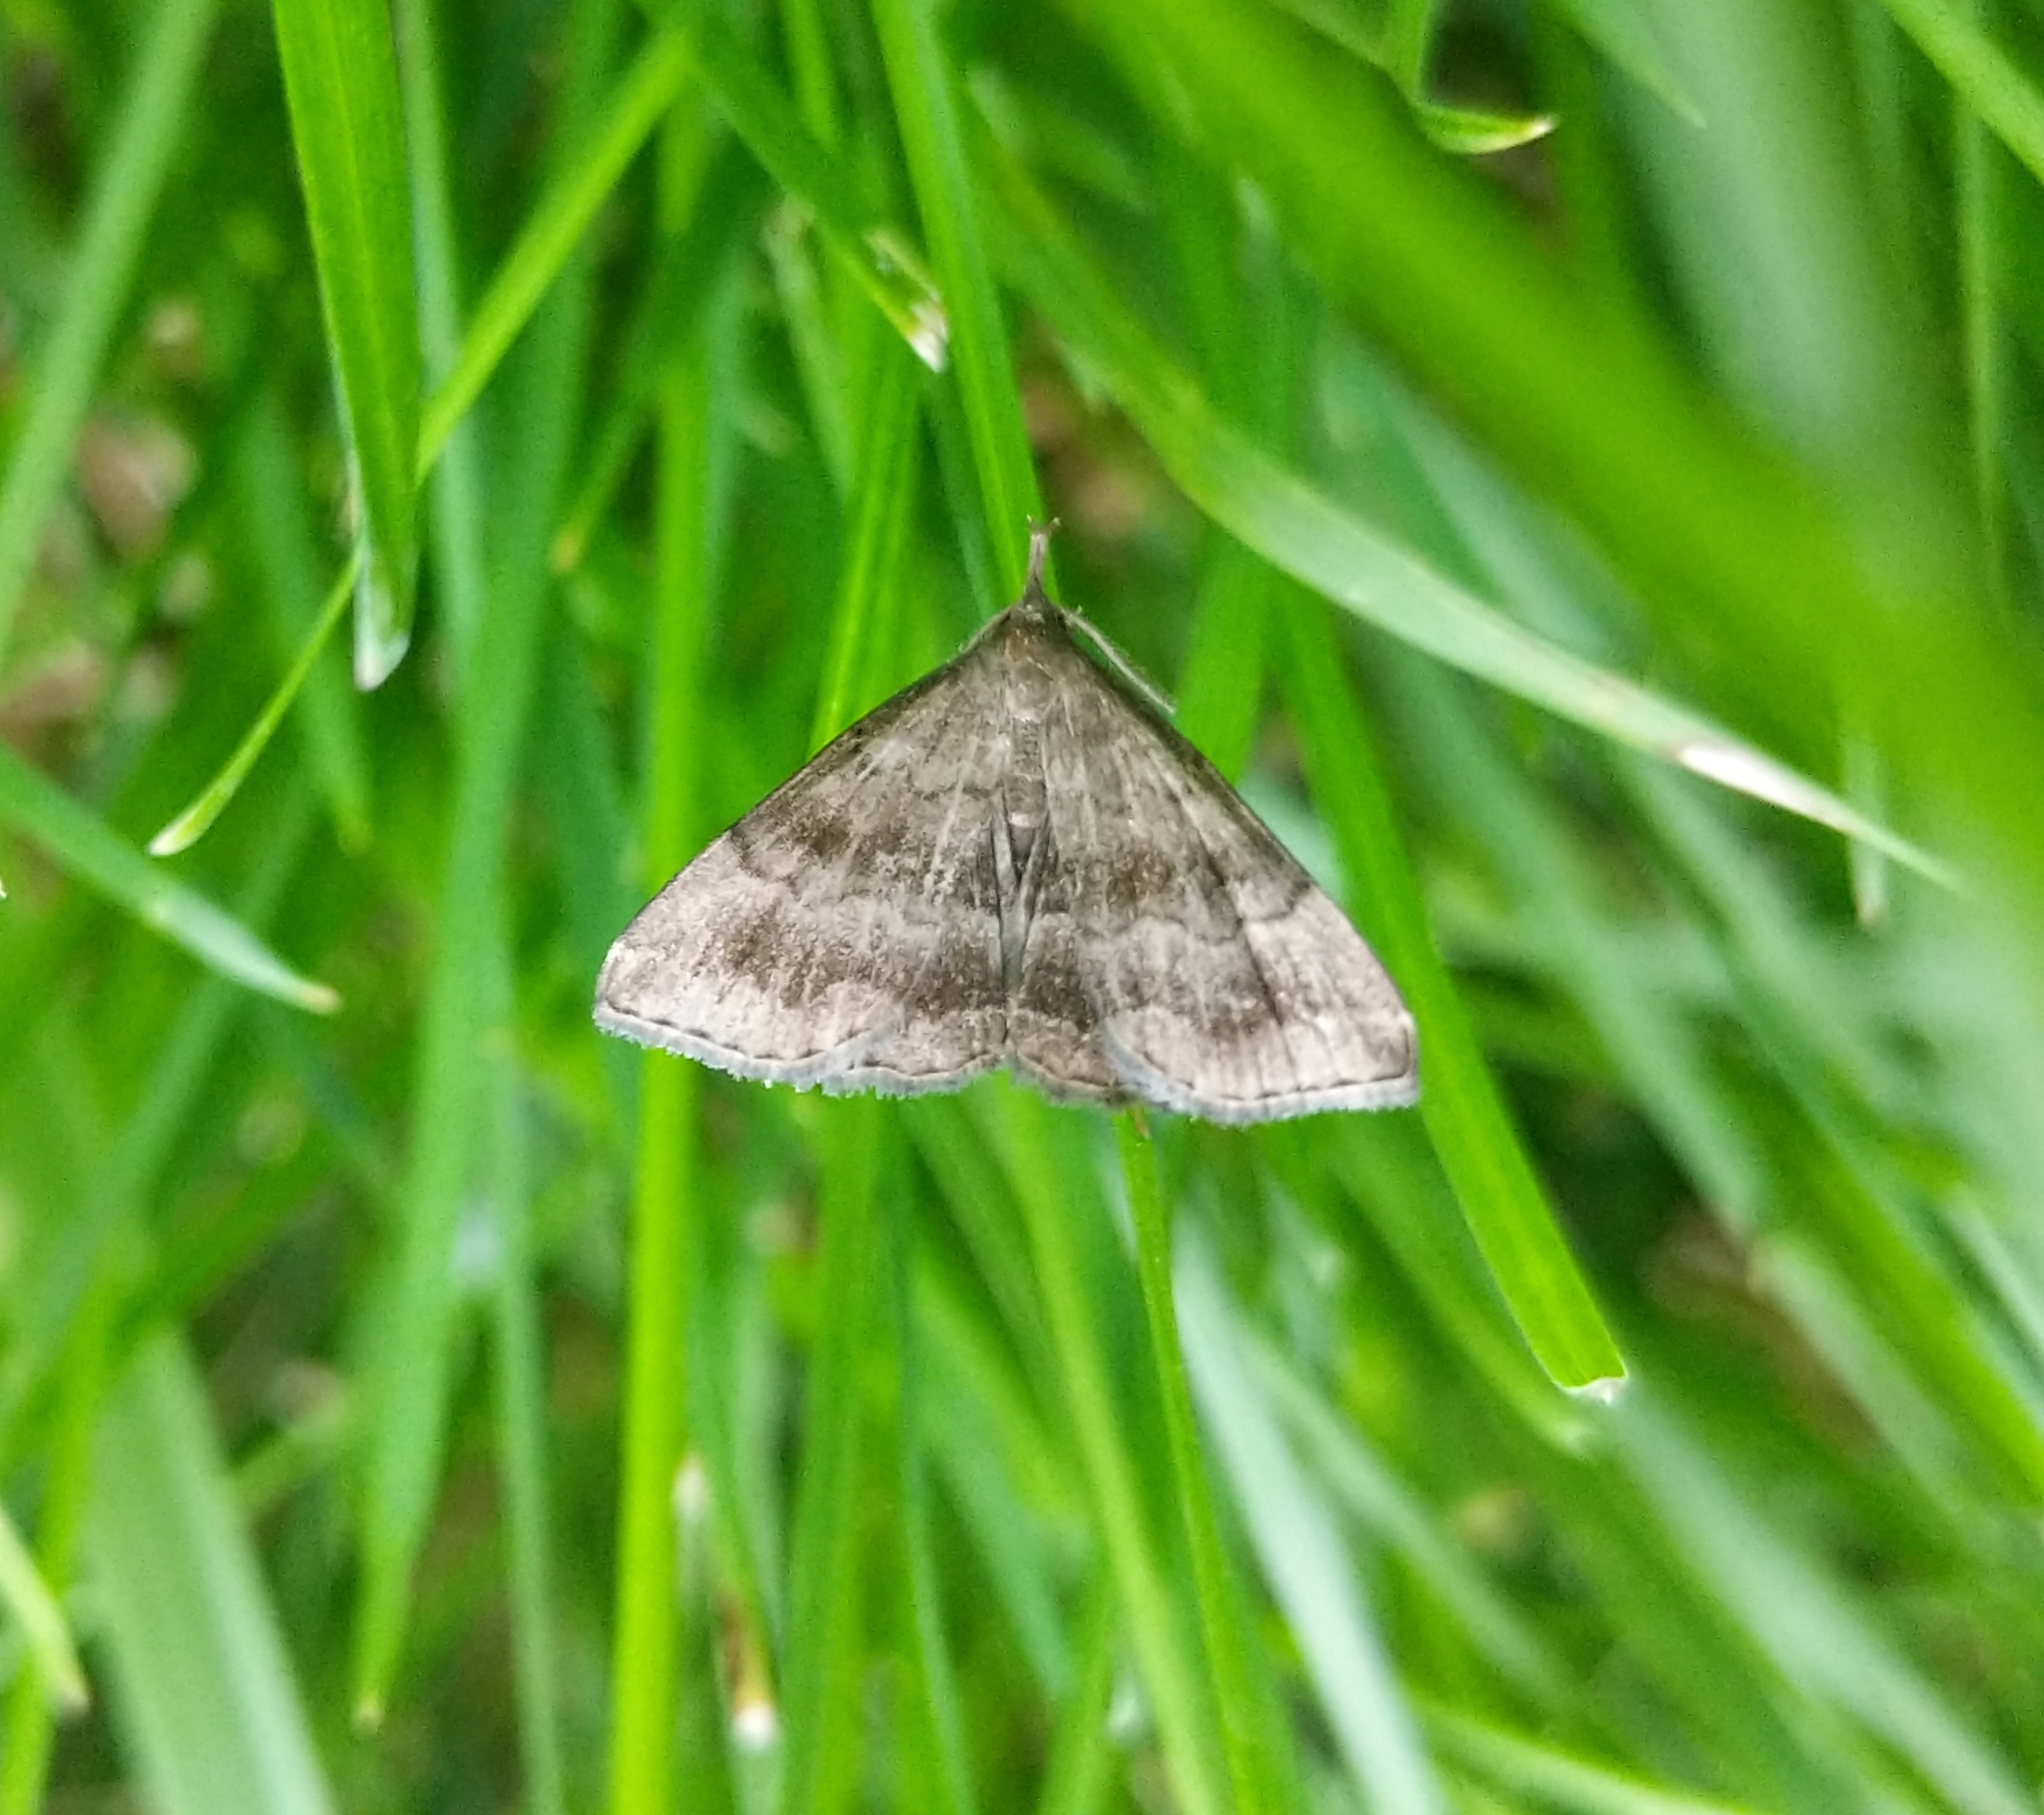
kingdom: Animalia
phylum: Arthropoda
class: Insecta
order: Lepidoptera
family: Erebidae
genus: Phalaenostola
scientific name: Phalaenostola larentioides
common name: Black-banded owlet
